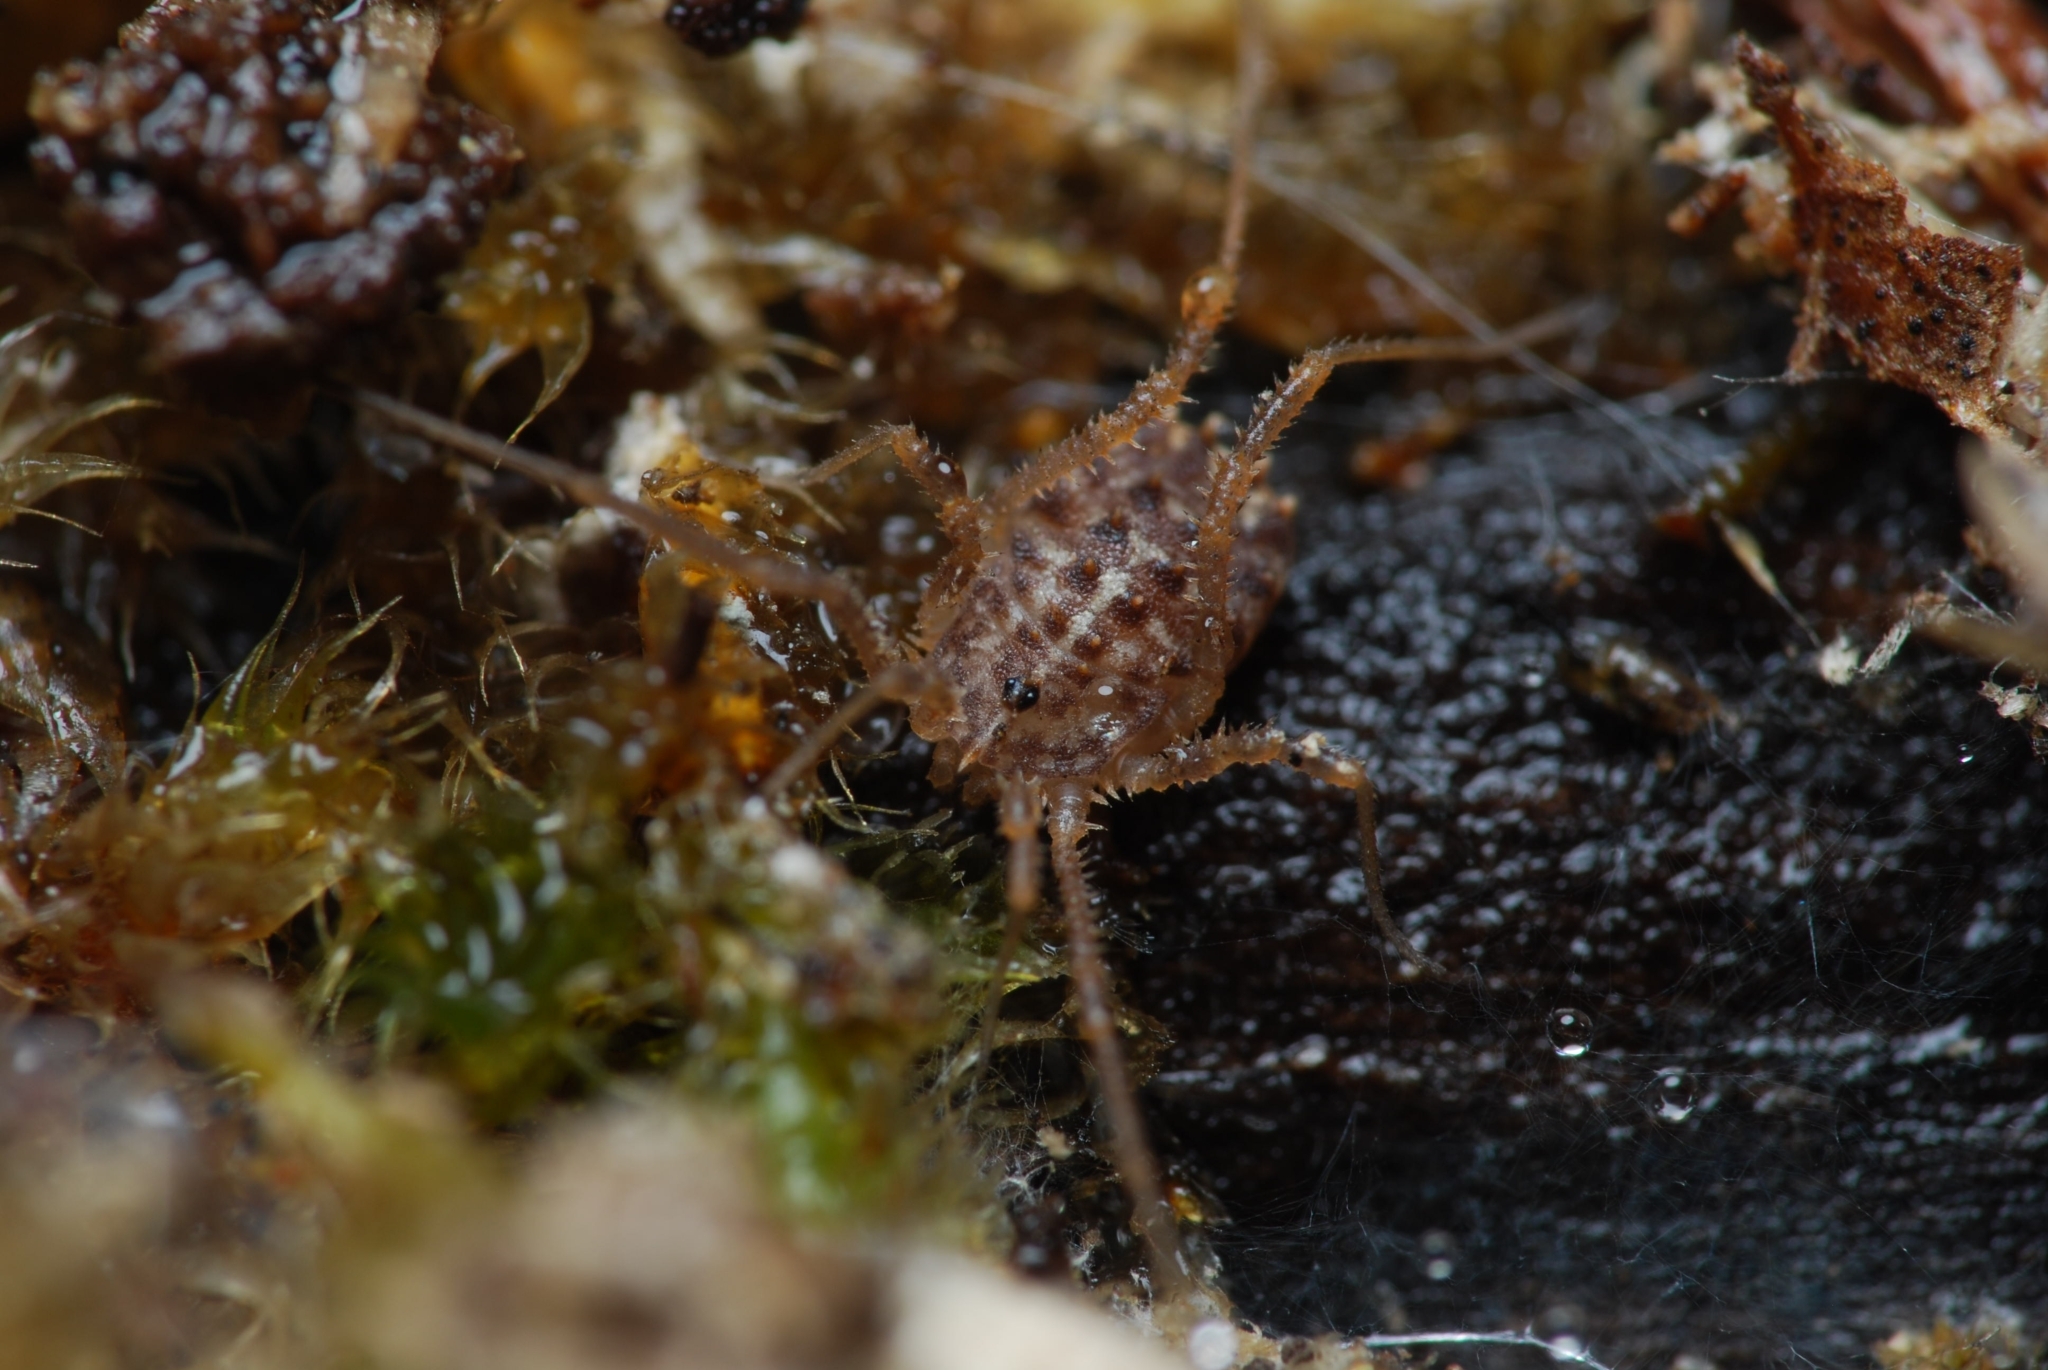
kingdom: Animalia
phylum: Arthropoda
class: Arachnida
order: Opiliones
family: Sclerosomatidae
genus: Homalenotus
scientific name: Homalenotus quadridentatus
